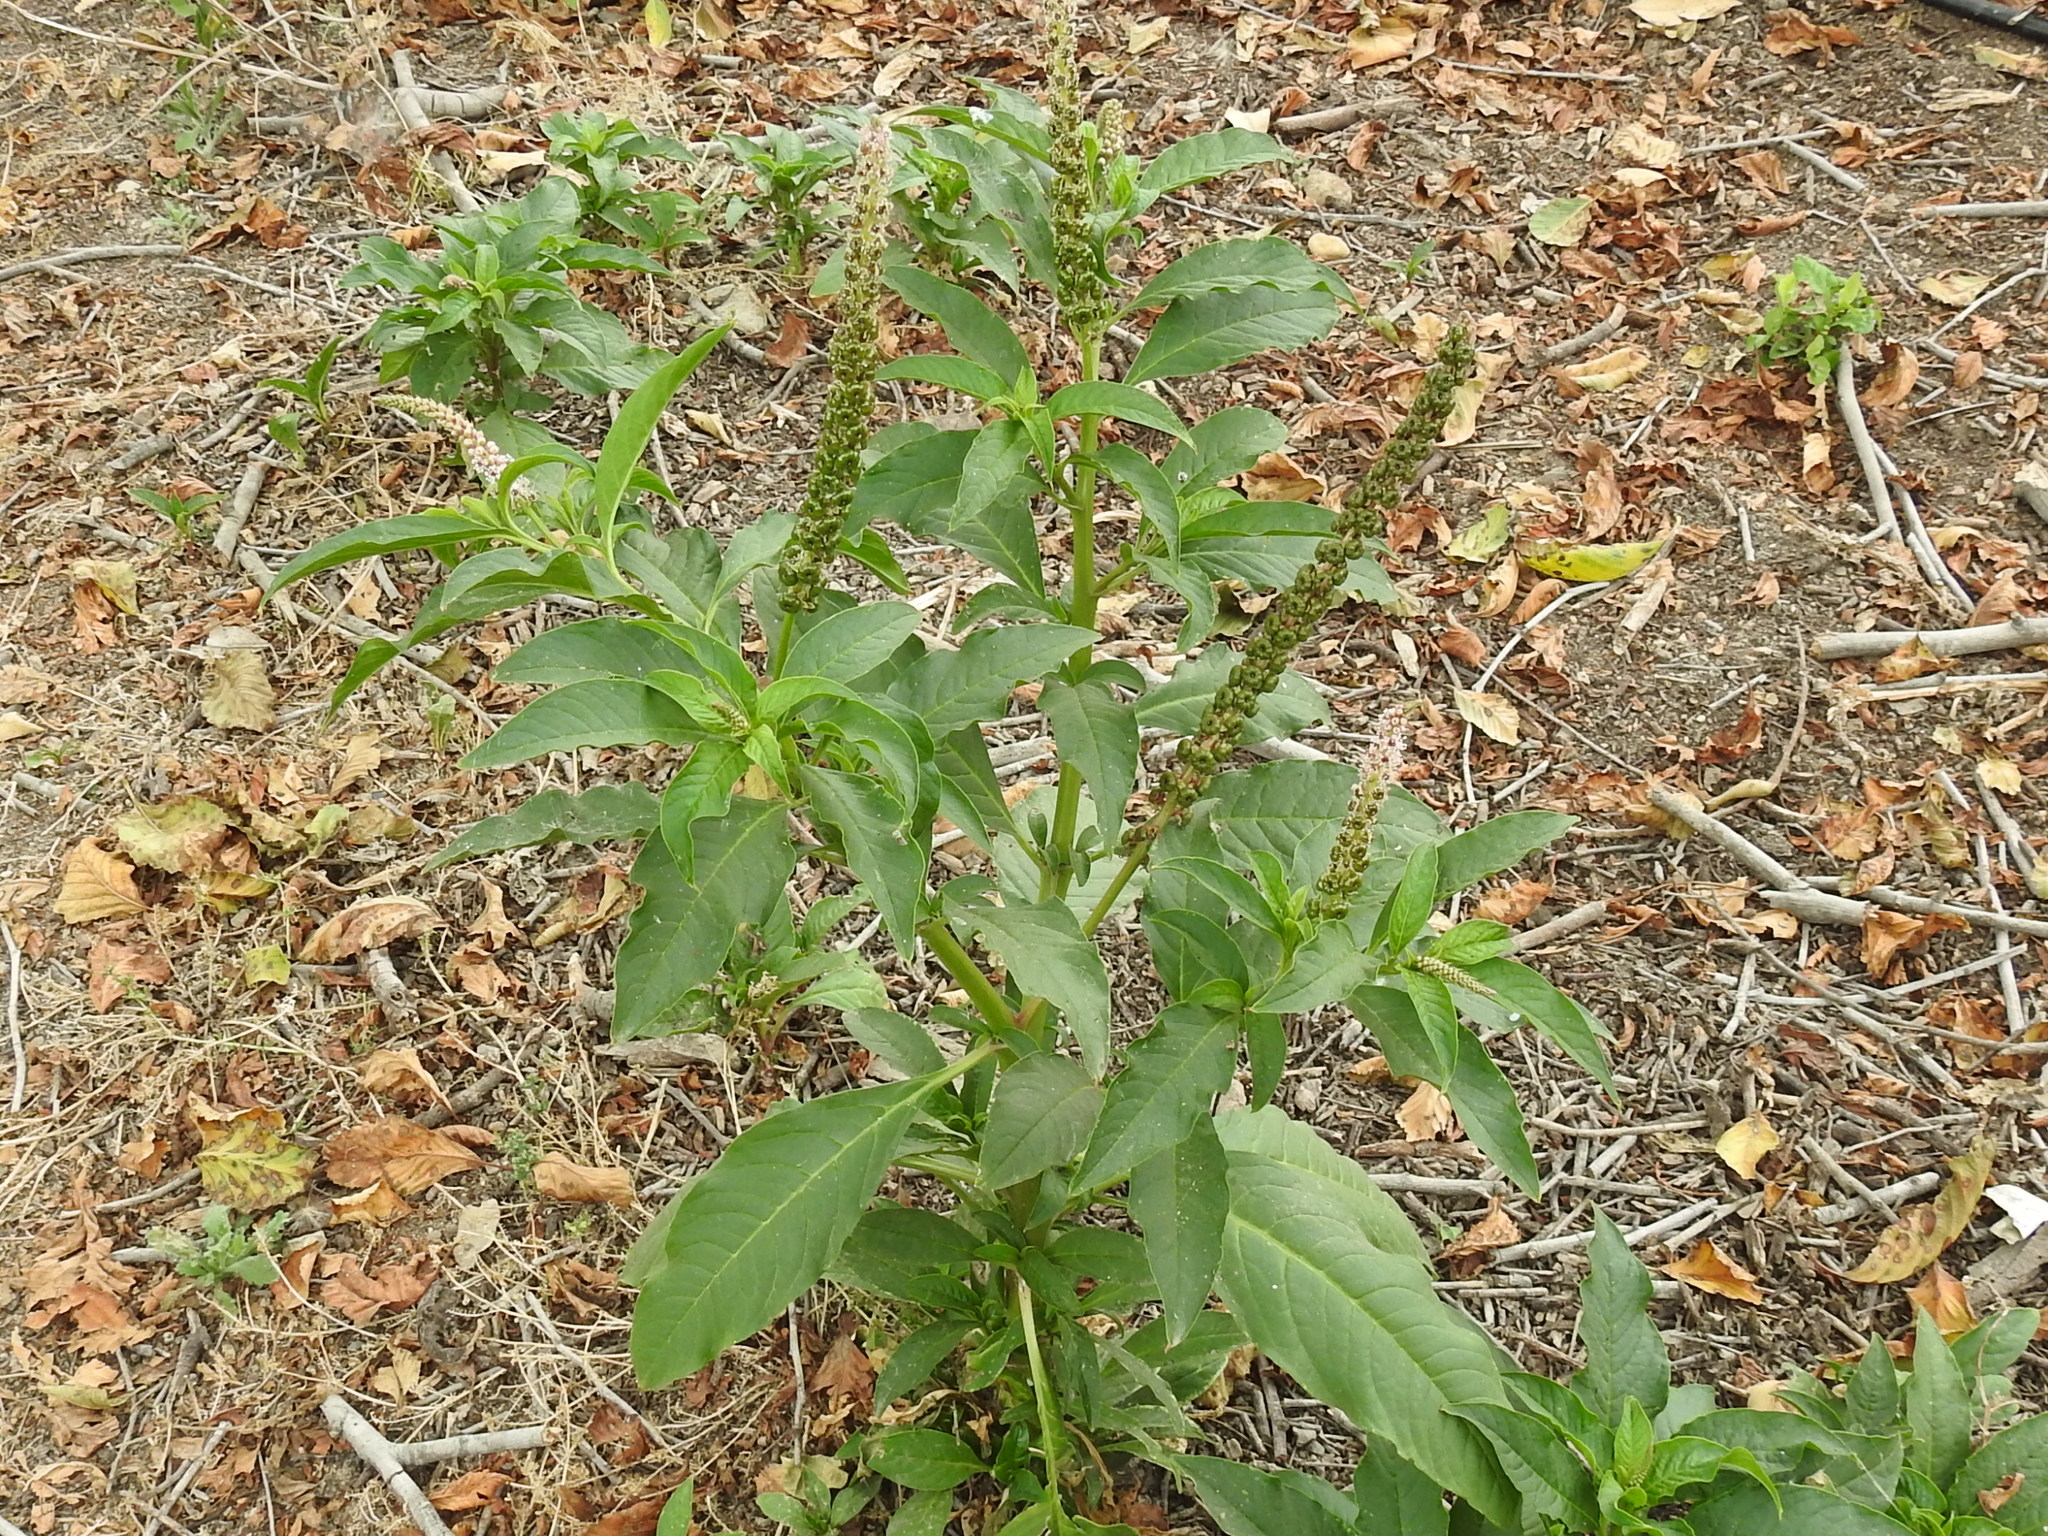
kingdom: Plantae
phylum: Tracheophyta
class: Magnoliopsida
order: Caryophyllales
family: Phytolaccaceae
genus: Phytolacca
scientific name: Phytolacca icosandra
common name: Button pokeweed
